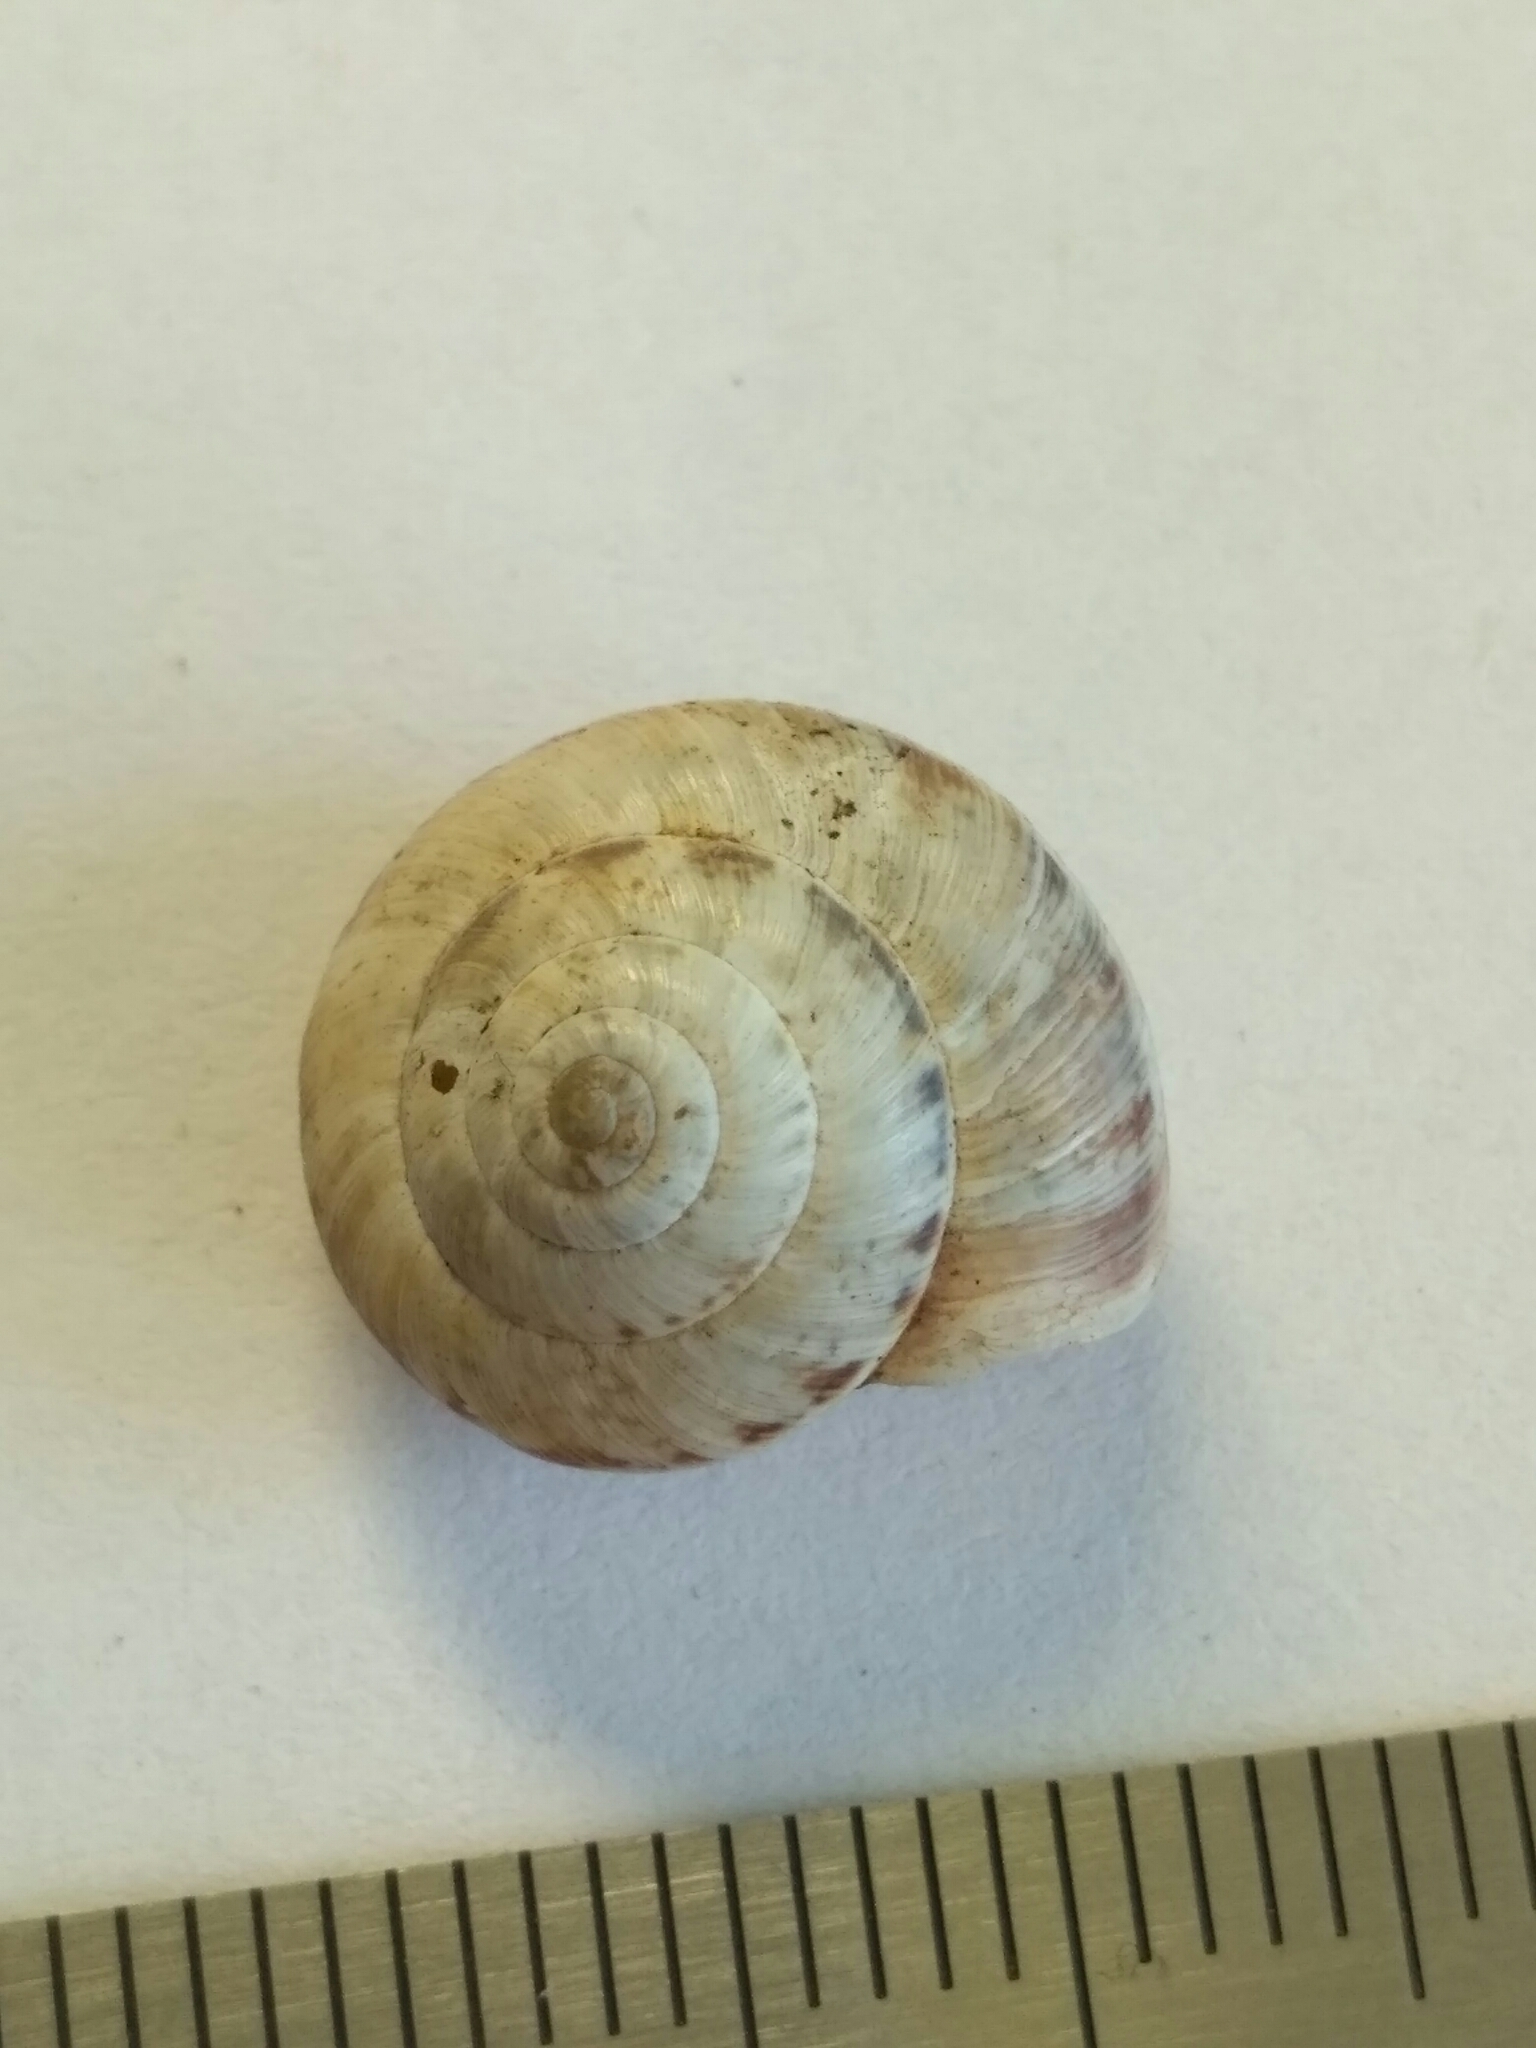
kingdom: Animalia
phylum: Mollusca
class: Gastropoda
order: Stylommatophora
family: Geomitridae
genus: Cernuella
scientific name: Cernuella virgata
